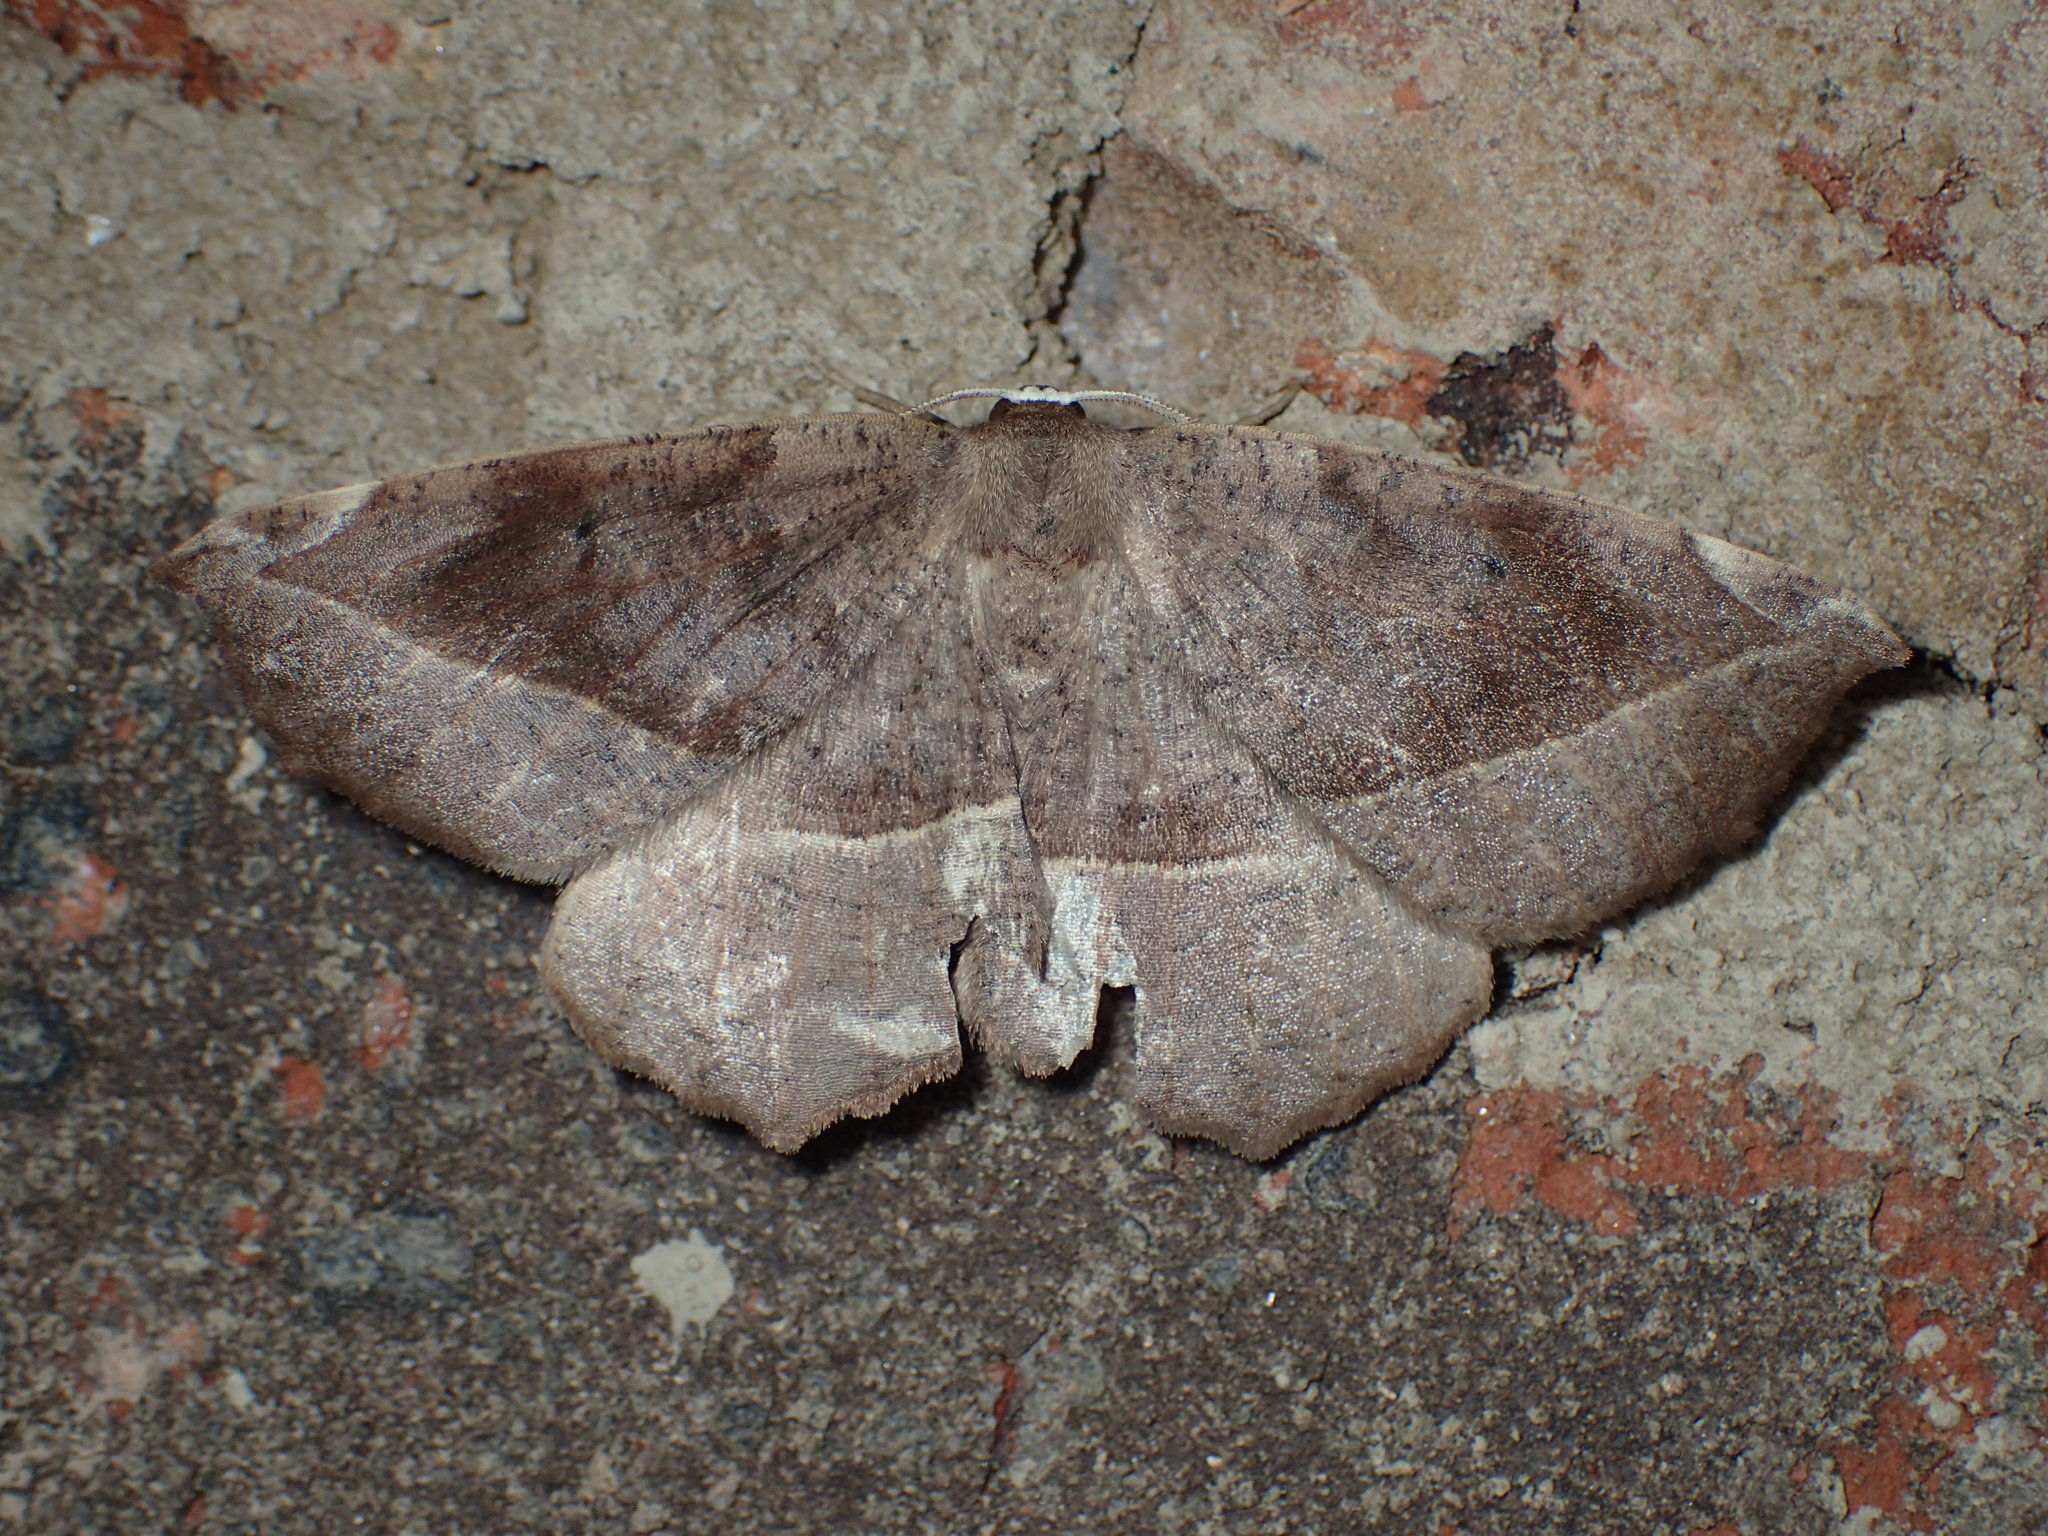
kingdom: Animalia
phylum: Arthropoda
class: Insecta
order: Lepidoptera
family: Geometridae
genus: Eutrapela
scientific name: Eutrapela clemataria
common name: Curved-toothed geometer
